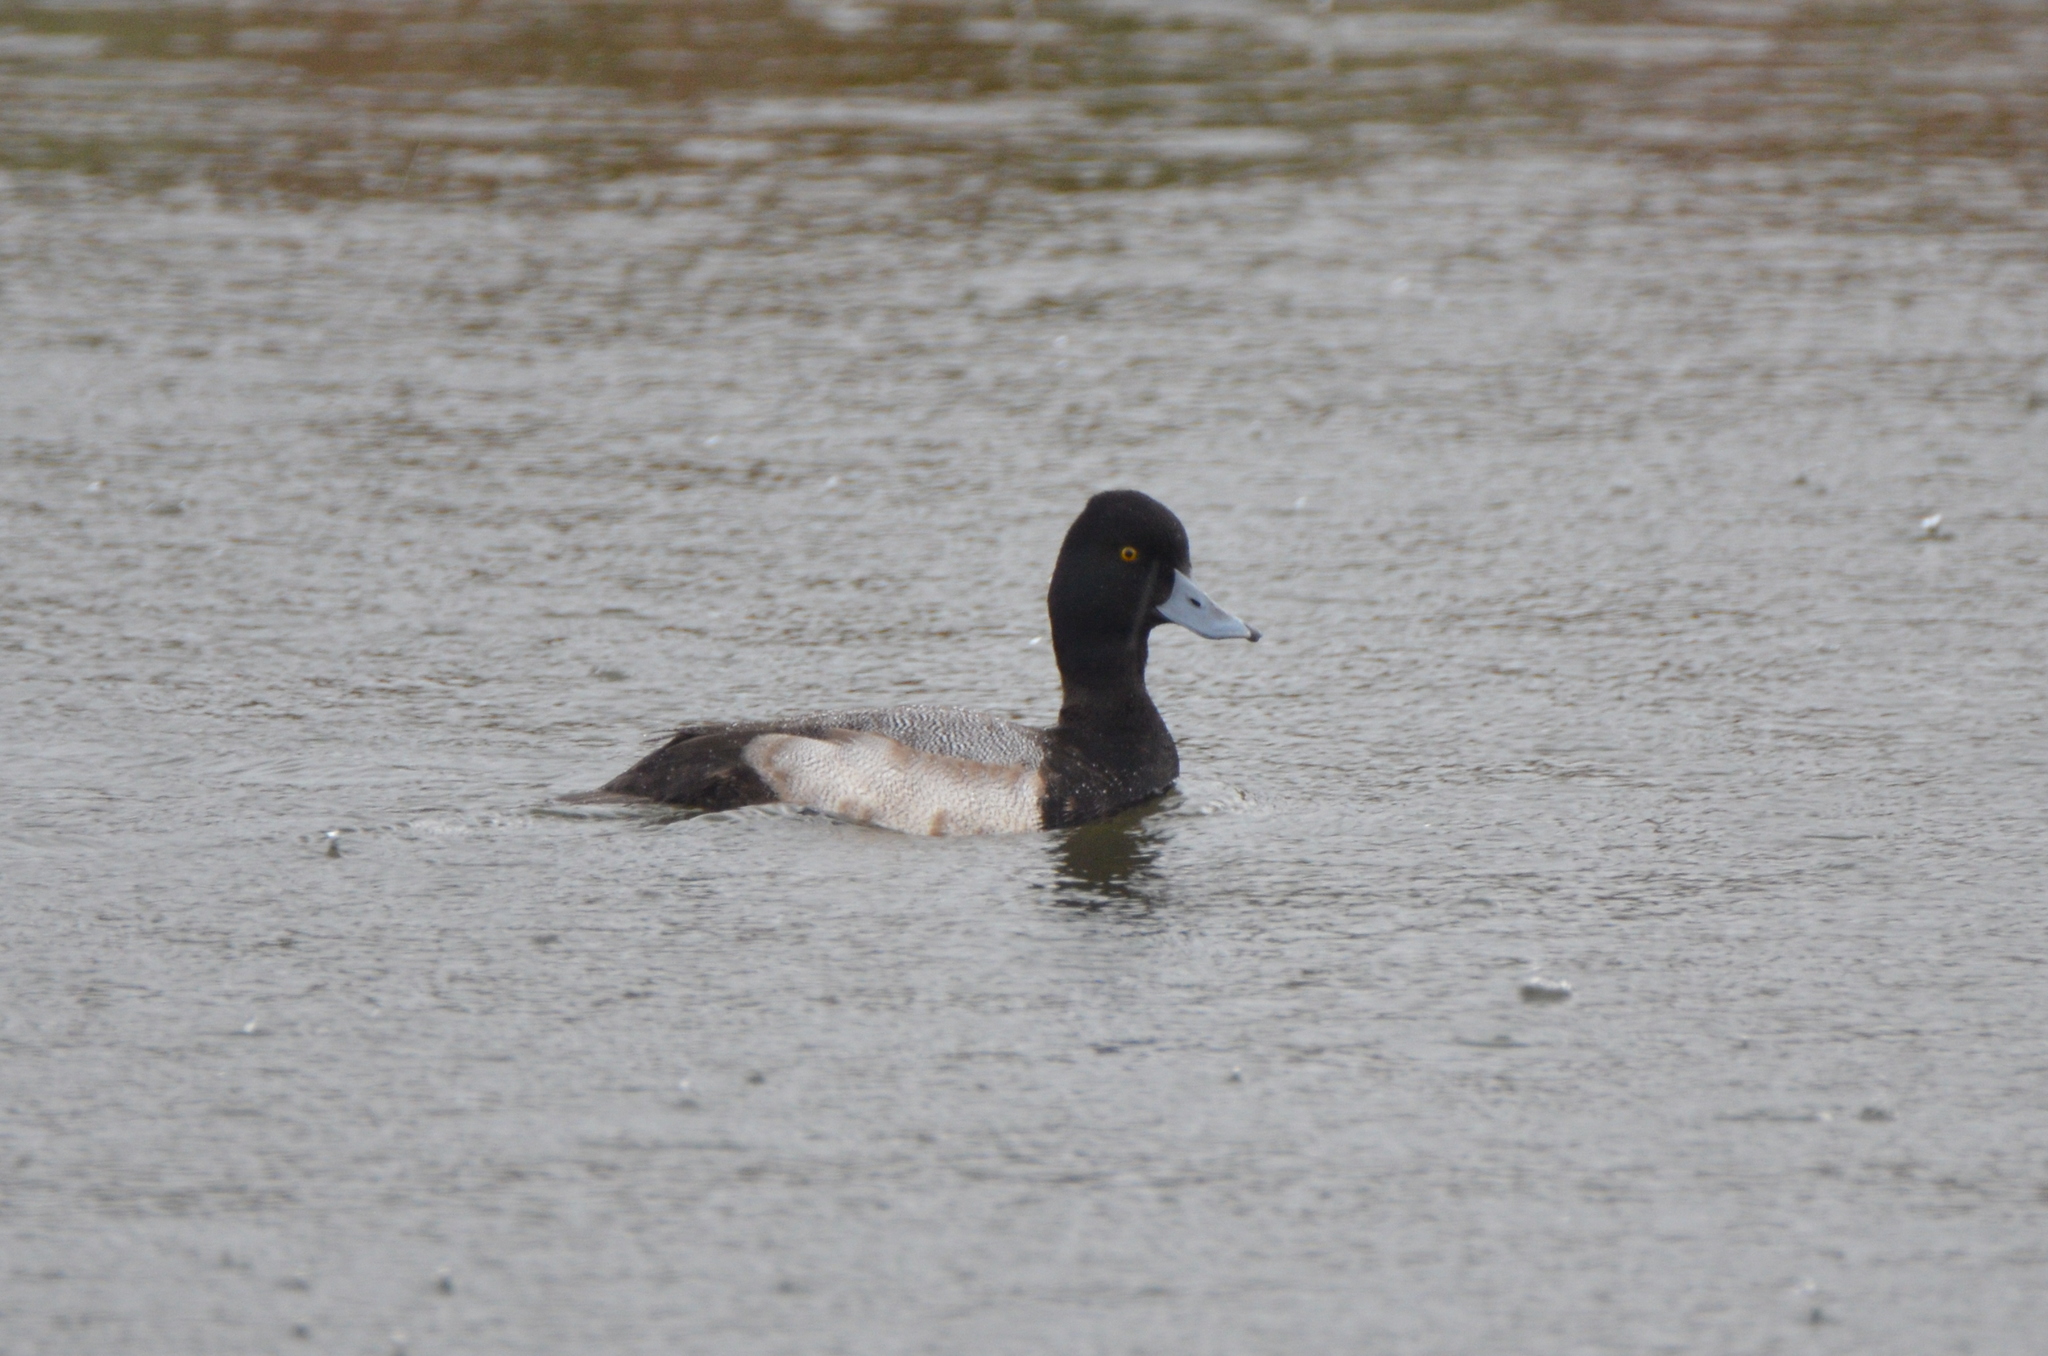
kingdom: Animalia
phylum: Chordata
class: Aves
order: Anseriformes
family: Anatidae
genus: Aythya
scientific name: Aythya affinis
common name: Lesser scaup
